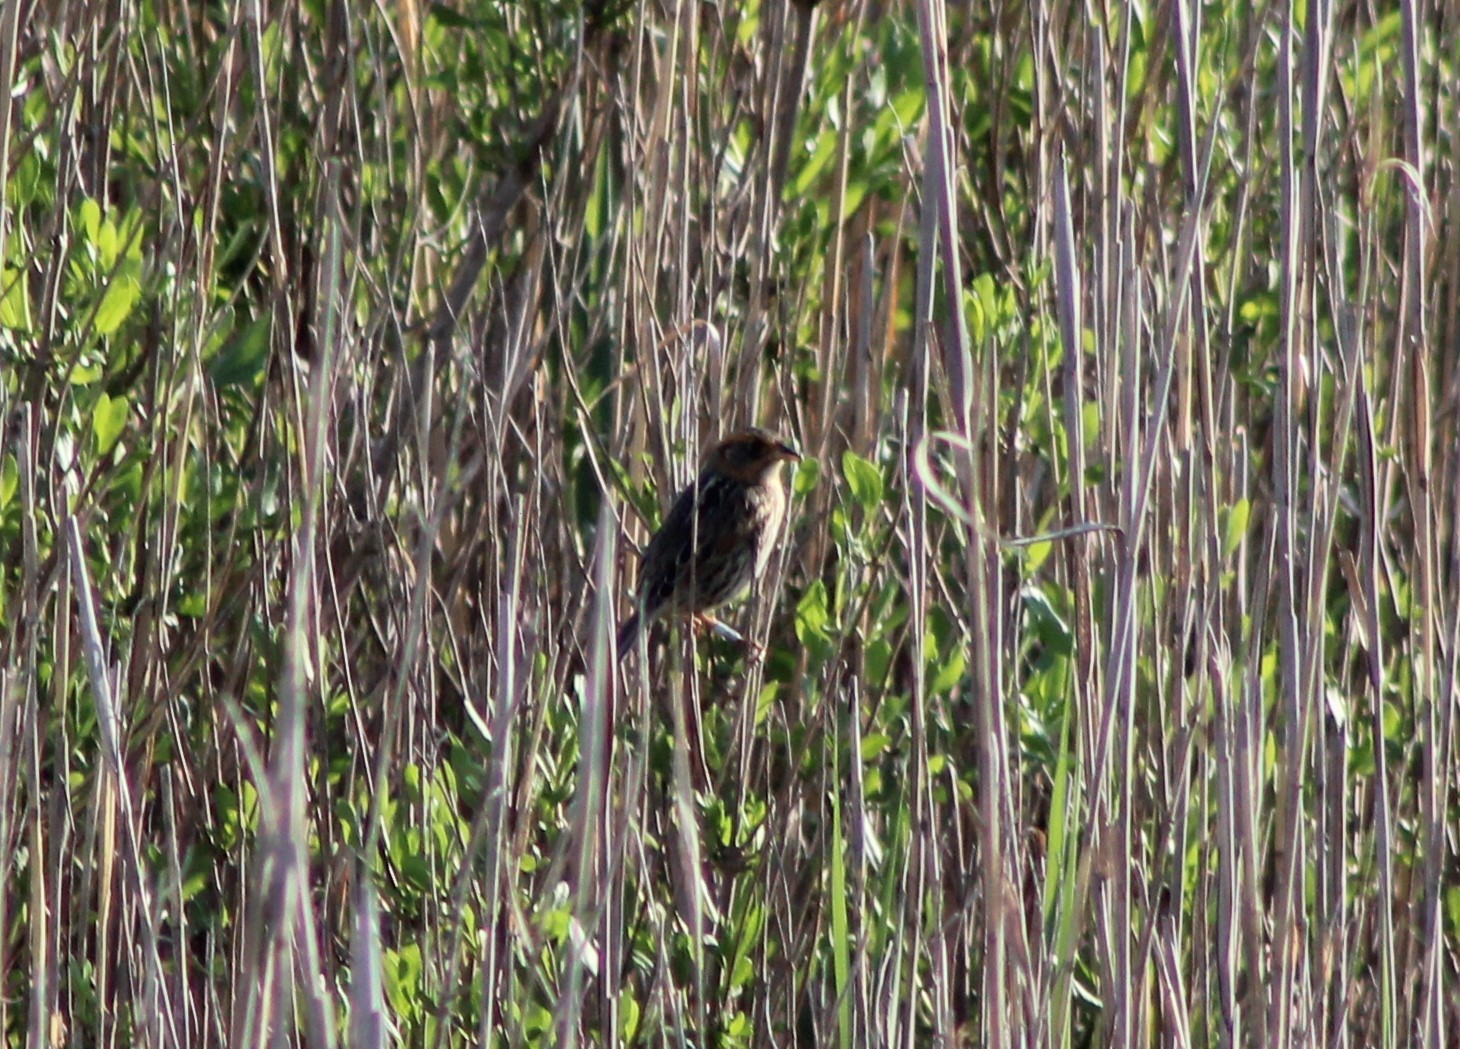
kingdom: Animalia
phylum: Chordata
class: Aves
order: Passeriformes
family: Passerellidae
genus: Ammospiza
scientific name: Ammospiza caudacuta
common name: Saltmarsh sparrow
